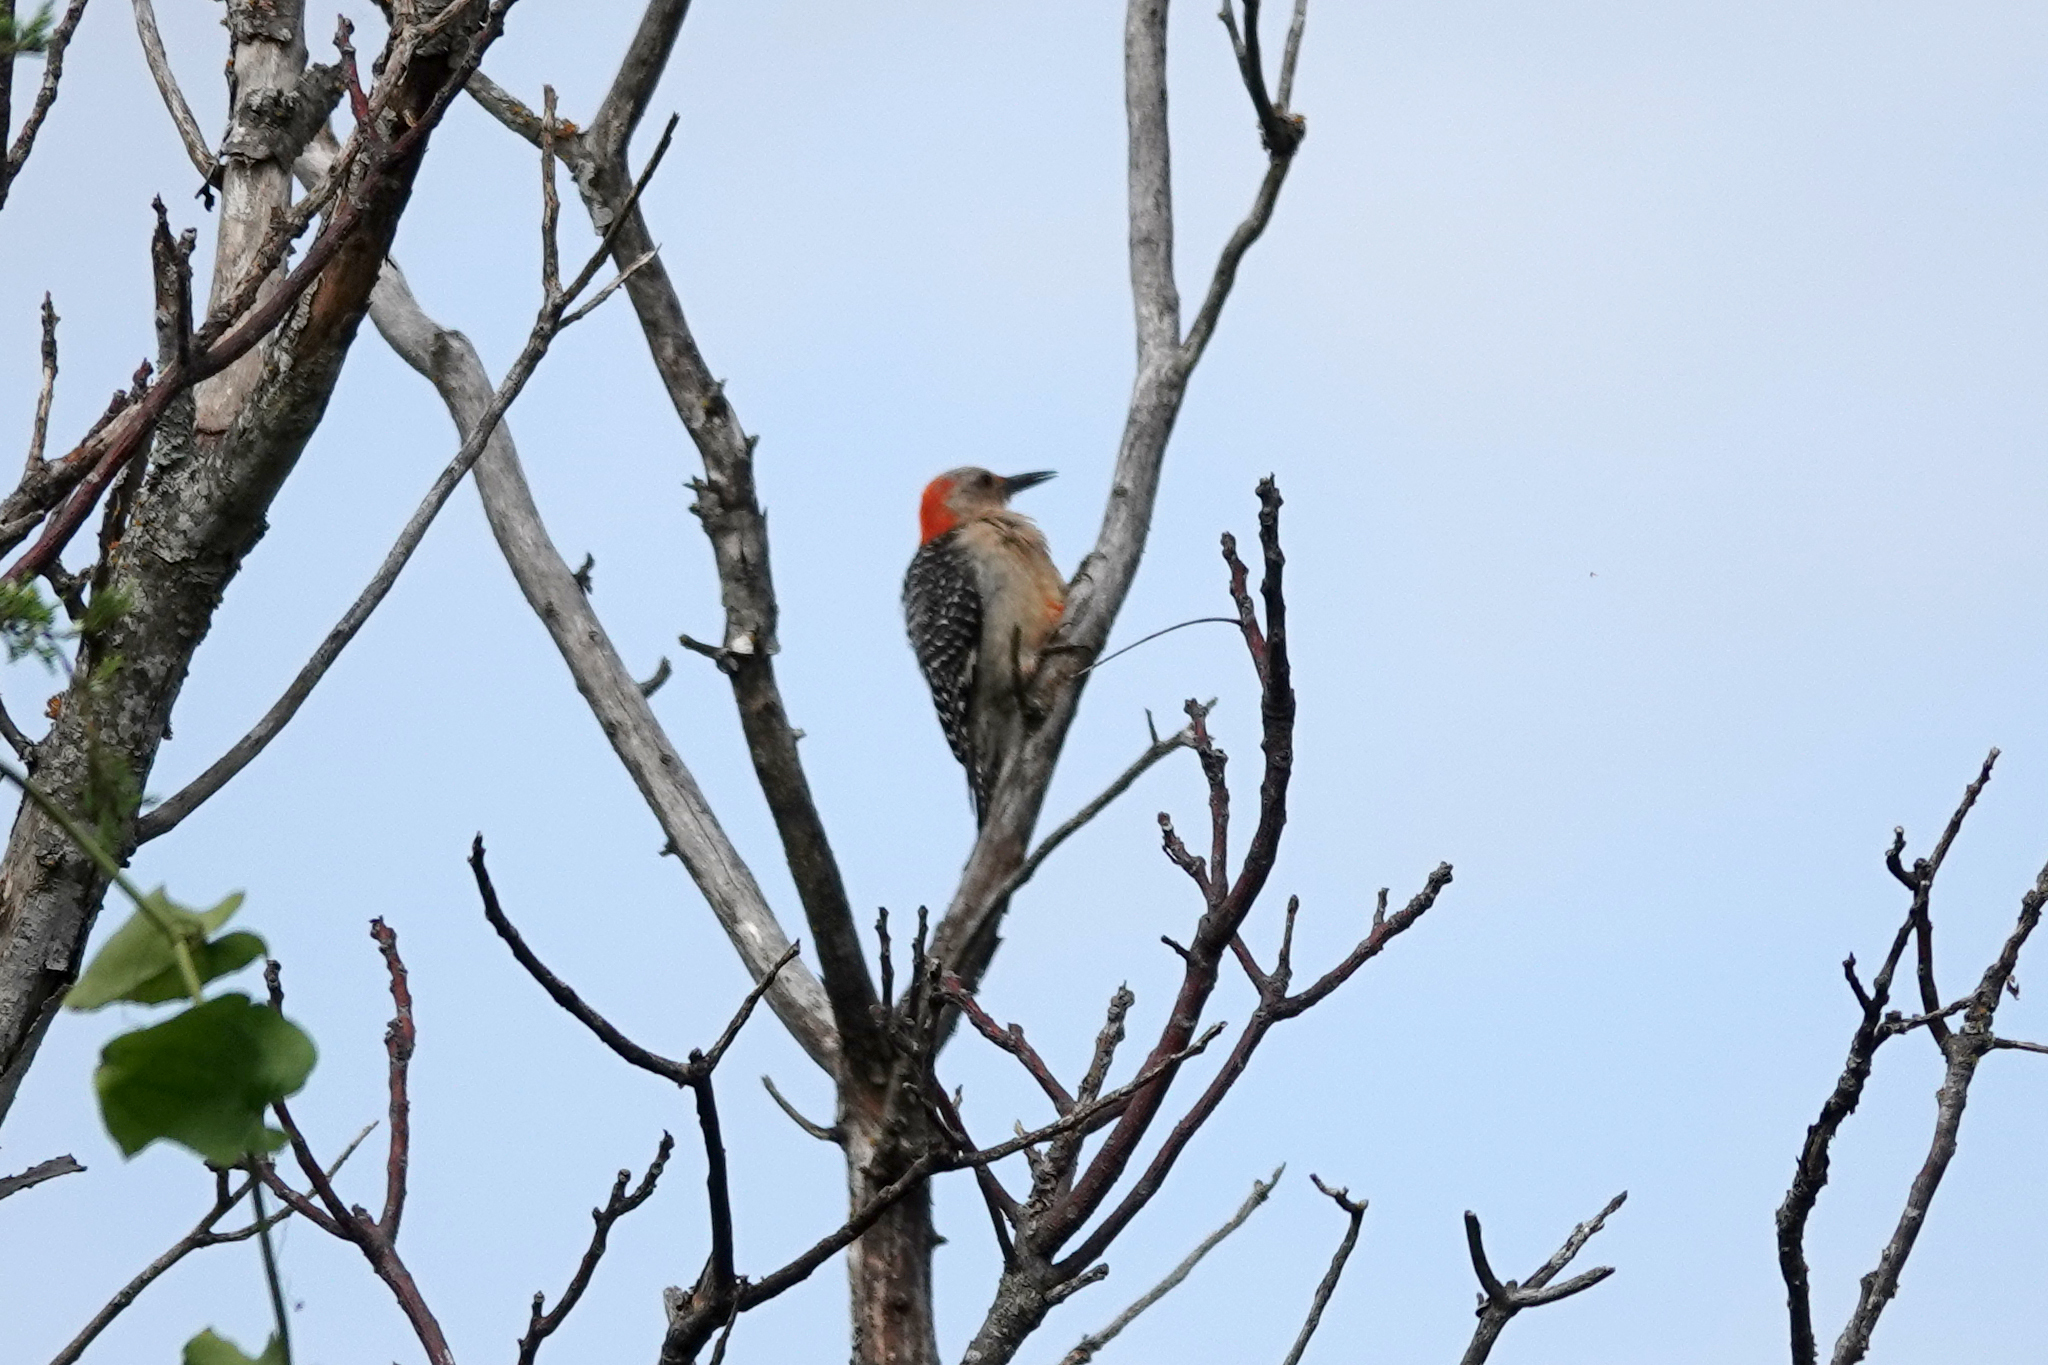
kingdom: Animalia
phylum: Chordata
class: Aves
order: Piciformes
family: Picidae
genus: Melanerpes
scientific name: Melanerpes carolinus
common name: Red-bellied woodpecker
